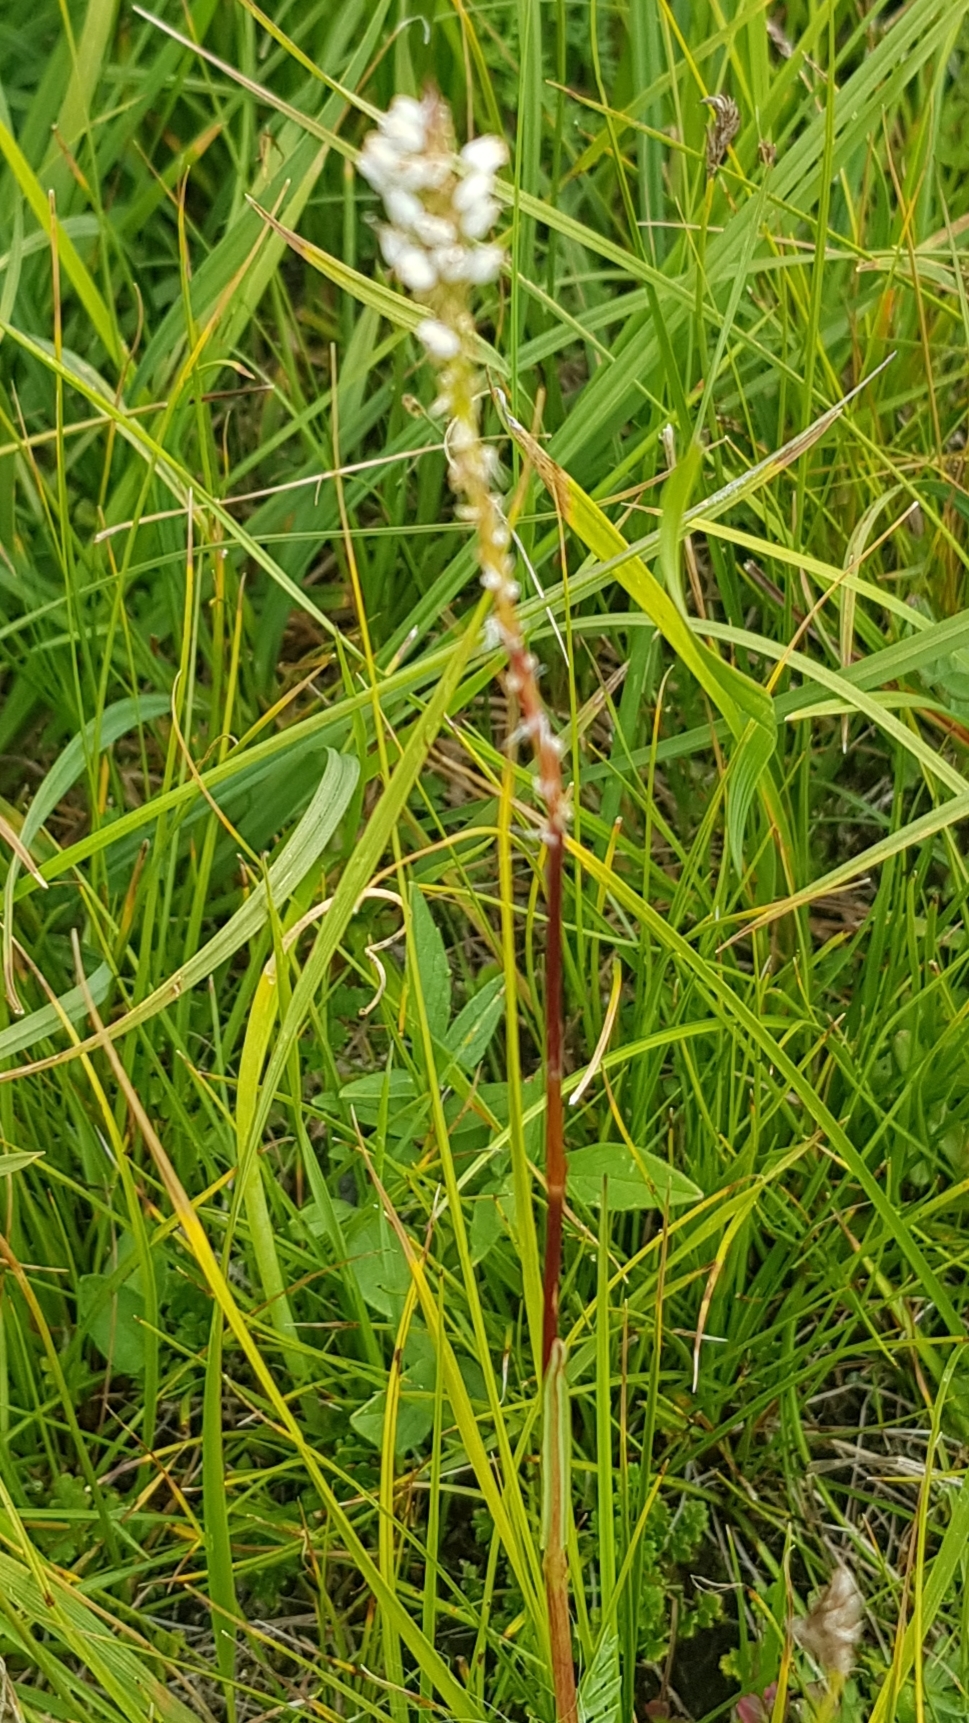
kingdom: Plantae
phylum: Tracheophyta
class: Magnoliopsida
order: Caryophyllales
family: Polygonaceae
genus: Bistorta
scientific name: Bistorta vivipara
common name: Alpine bistort
